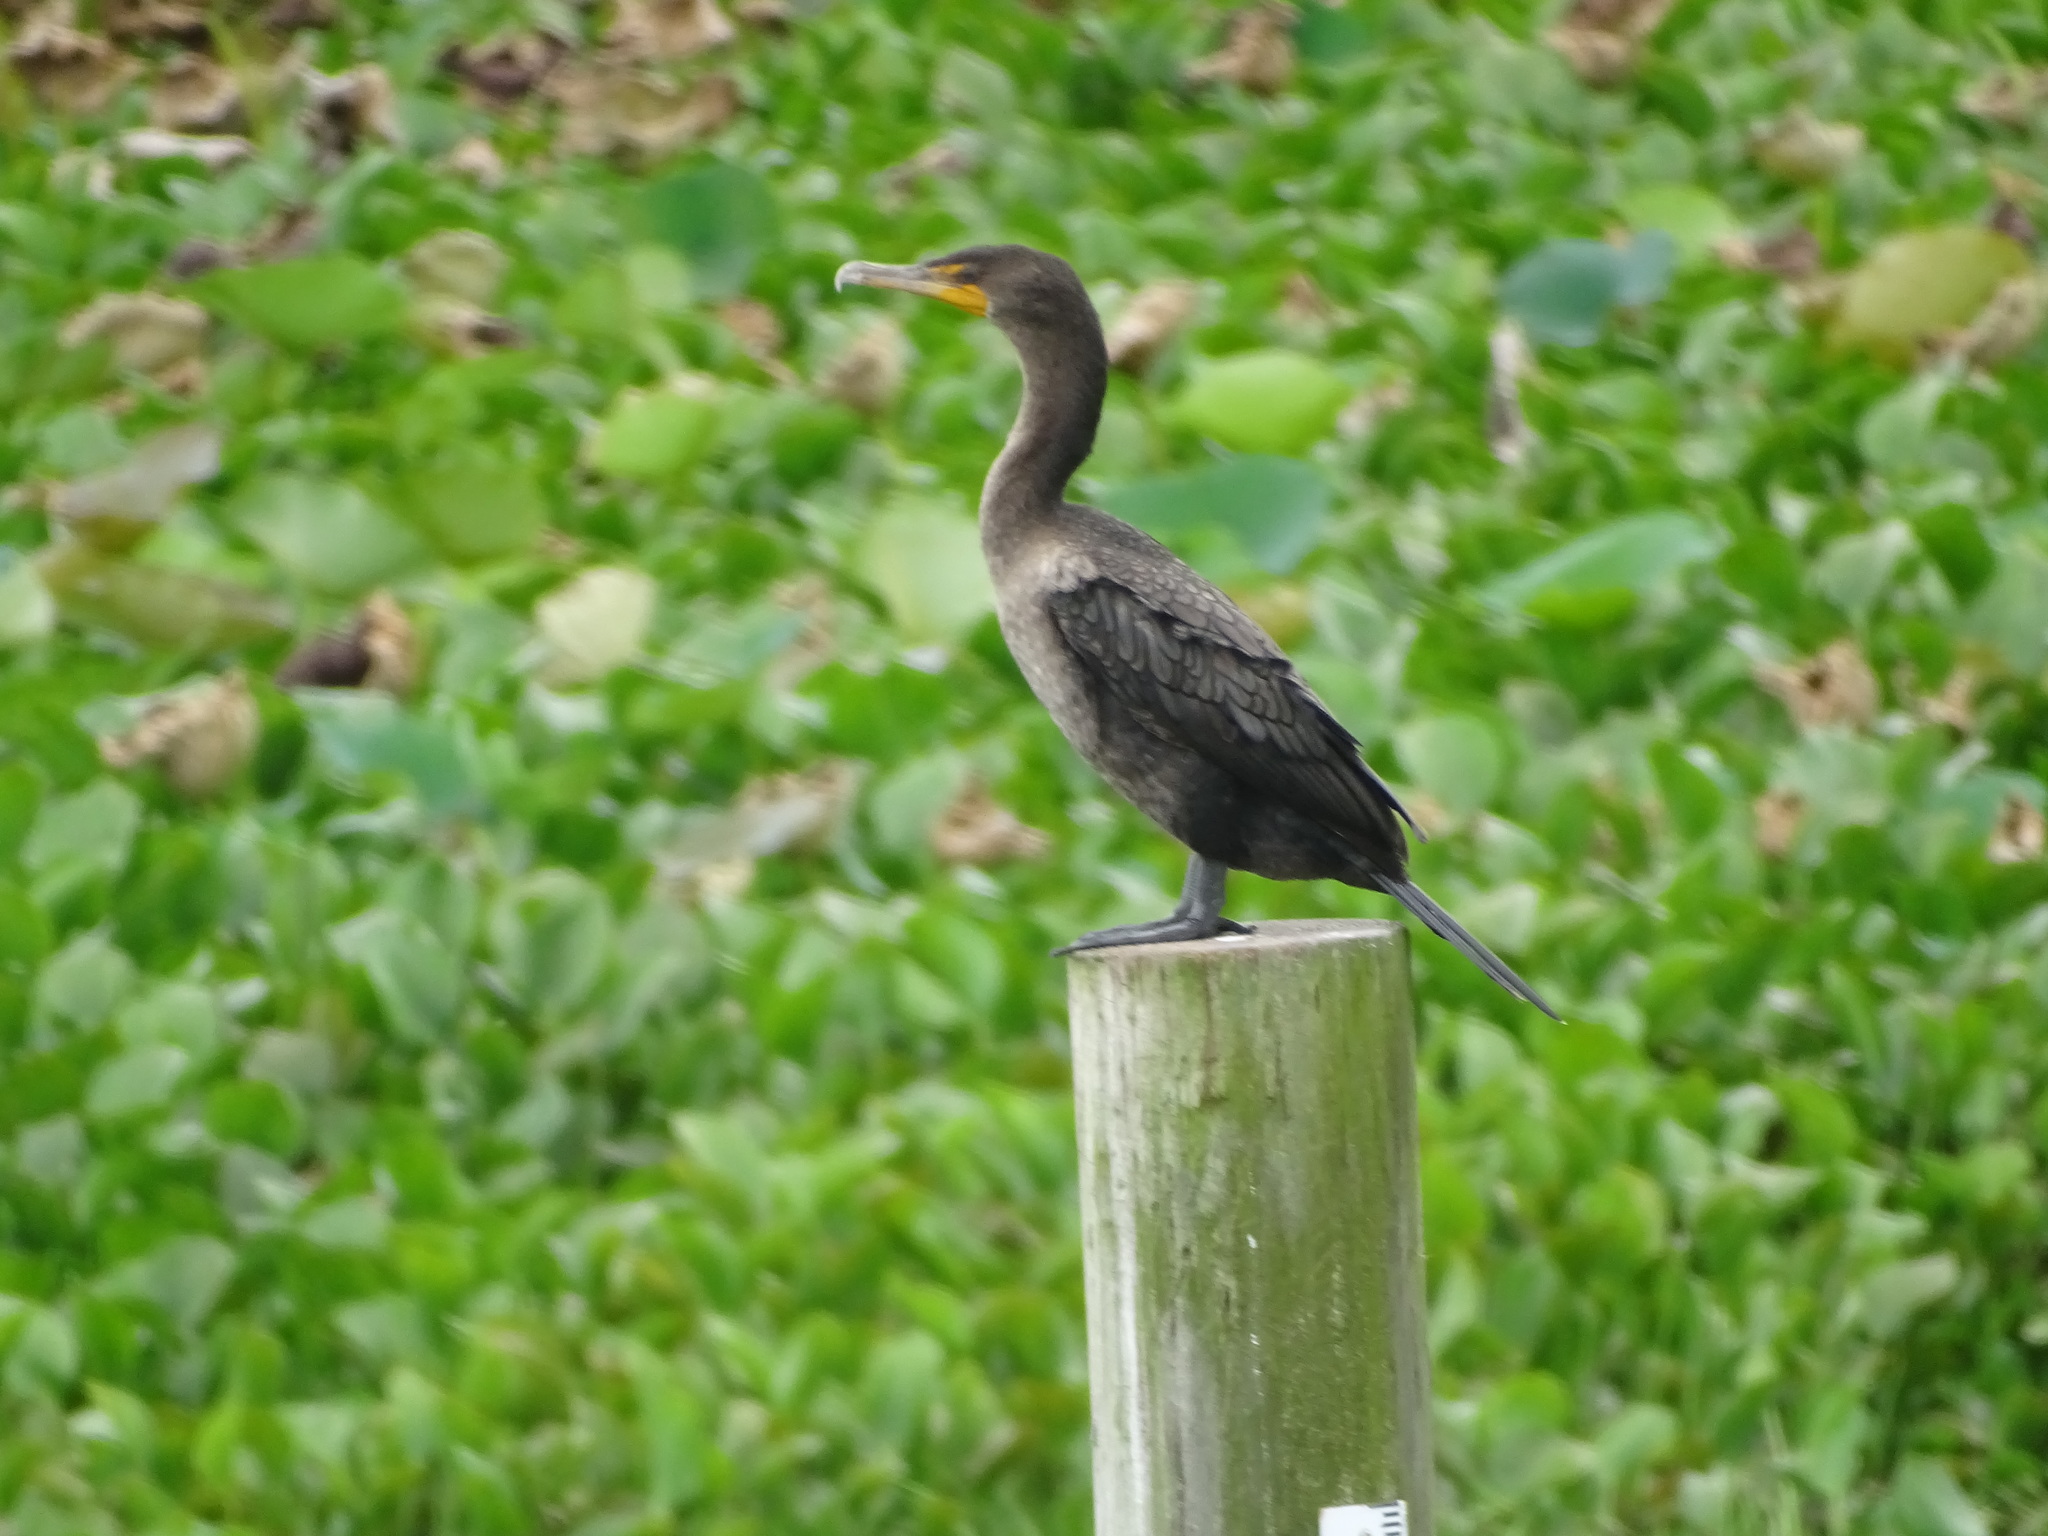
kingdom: Animalia
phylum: Chordata
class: Aves
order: Suliformes
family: Phalacrocoracidae
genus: Phalacrocorax
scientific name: Phalacrocorax auritus
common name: Double-crested cormorant
